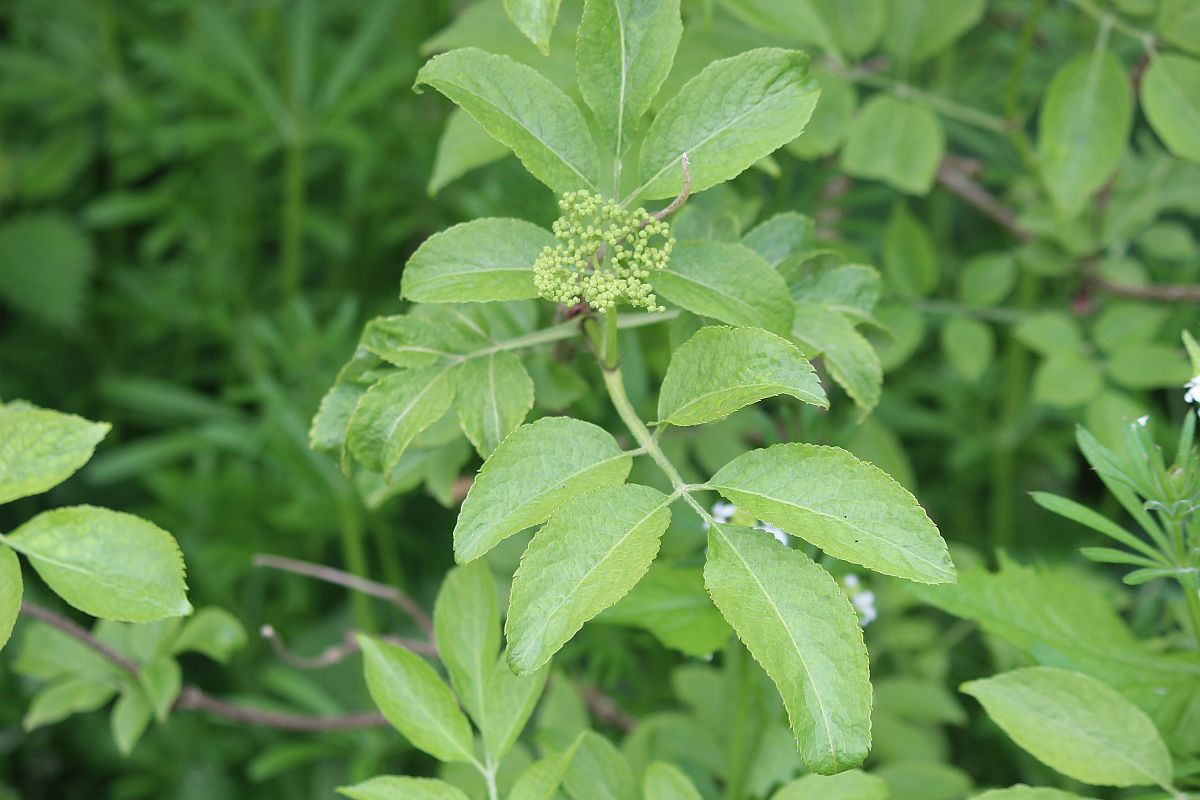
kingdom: Plantae
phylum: Tracheophyta
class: Magnoliopsida
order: Dipsacales
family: Viburnaceae
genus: Sambucus
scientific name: Sambucus nigra
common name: Elder
